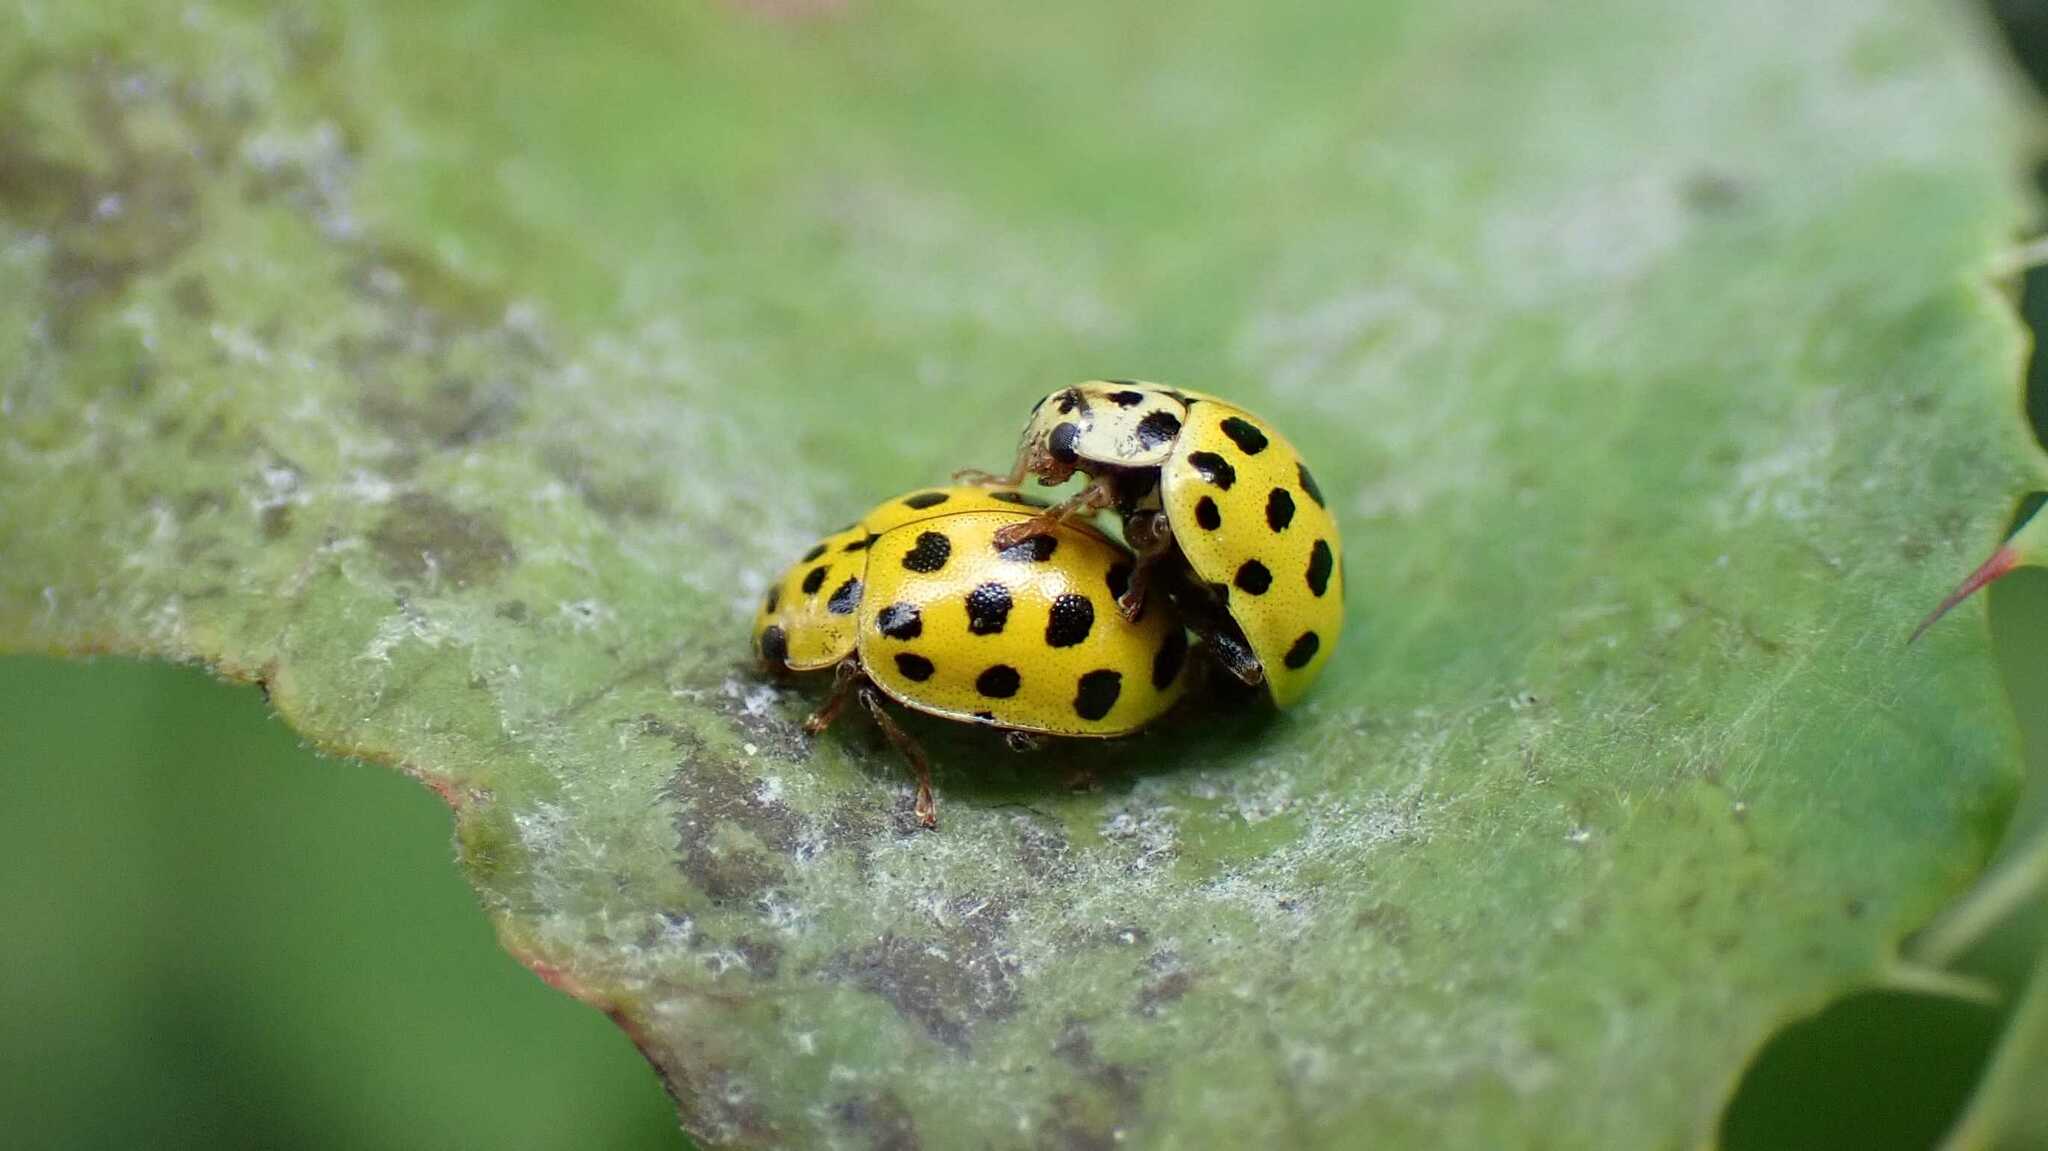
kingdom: Animalia
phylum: Arthropoda
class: Insecta
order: Coleoptera
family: Coccinellidae
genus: Psyllobora
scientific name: Psyllobora vigintiduopunctata
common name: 22-spot ladybird
